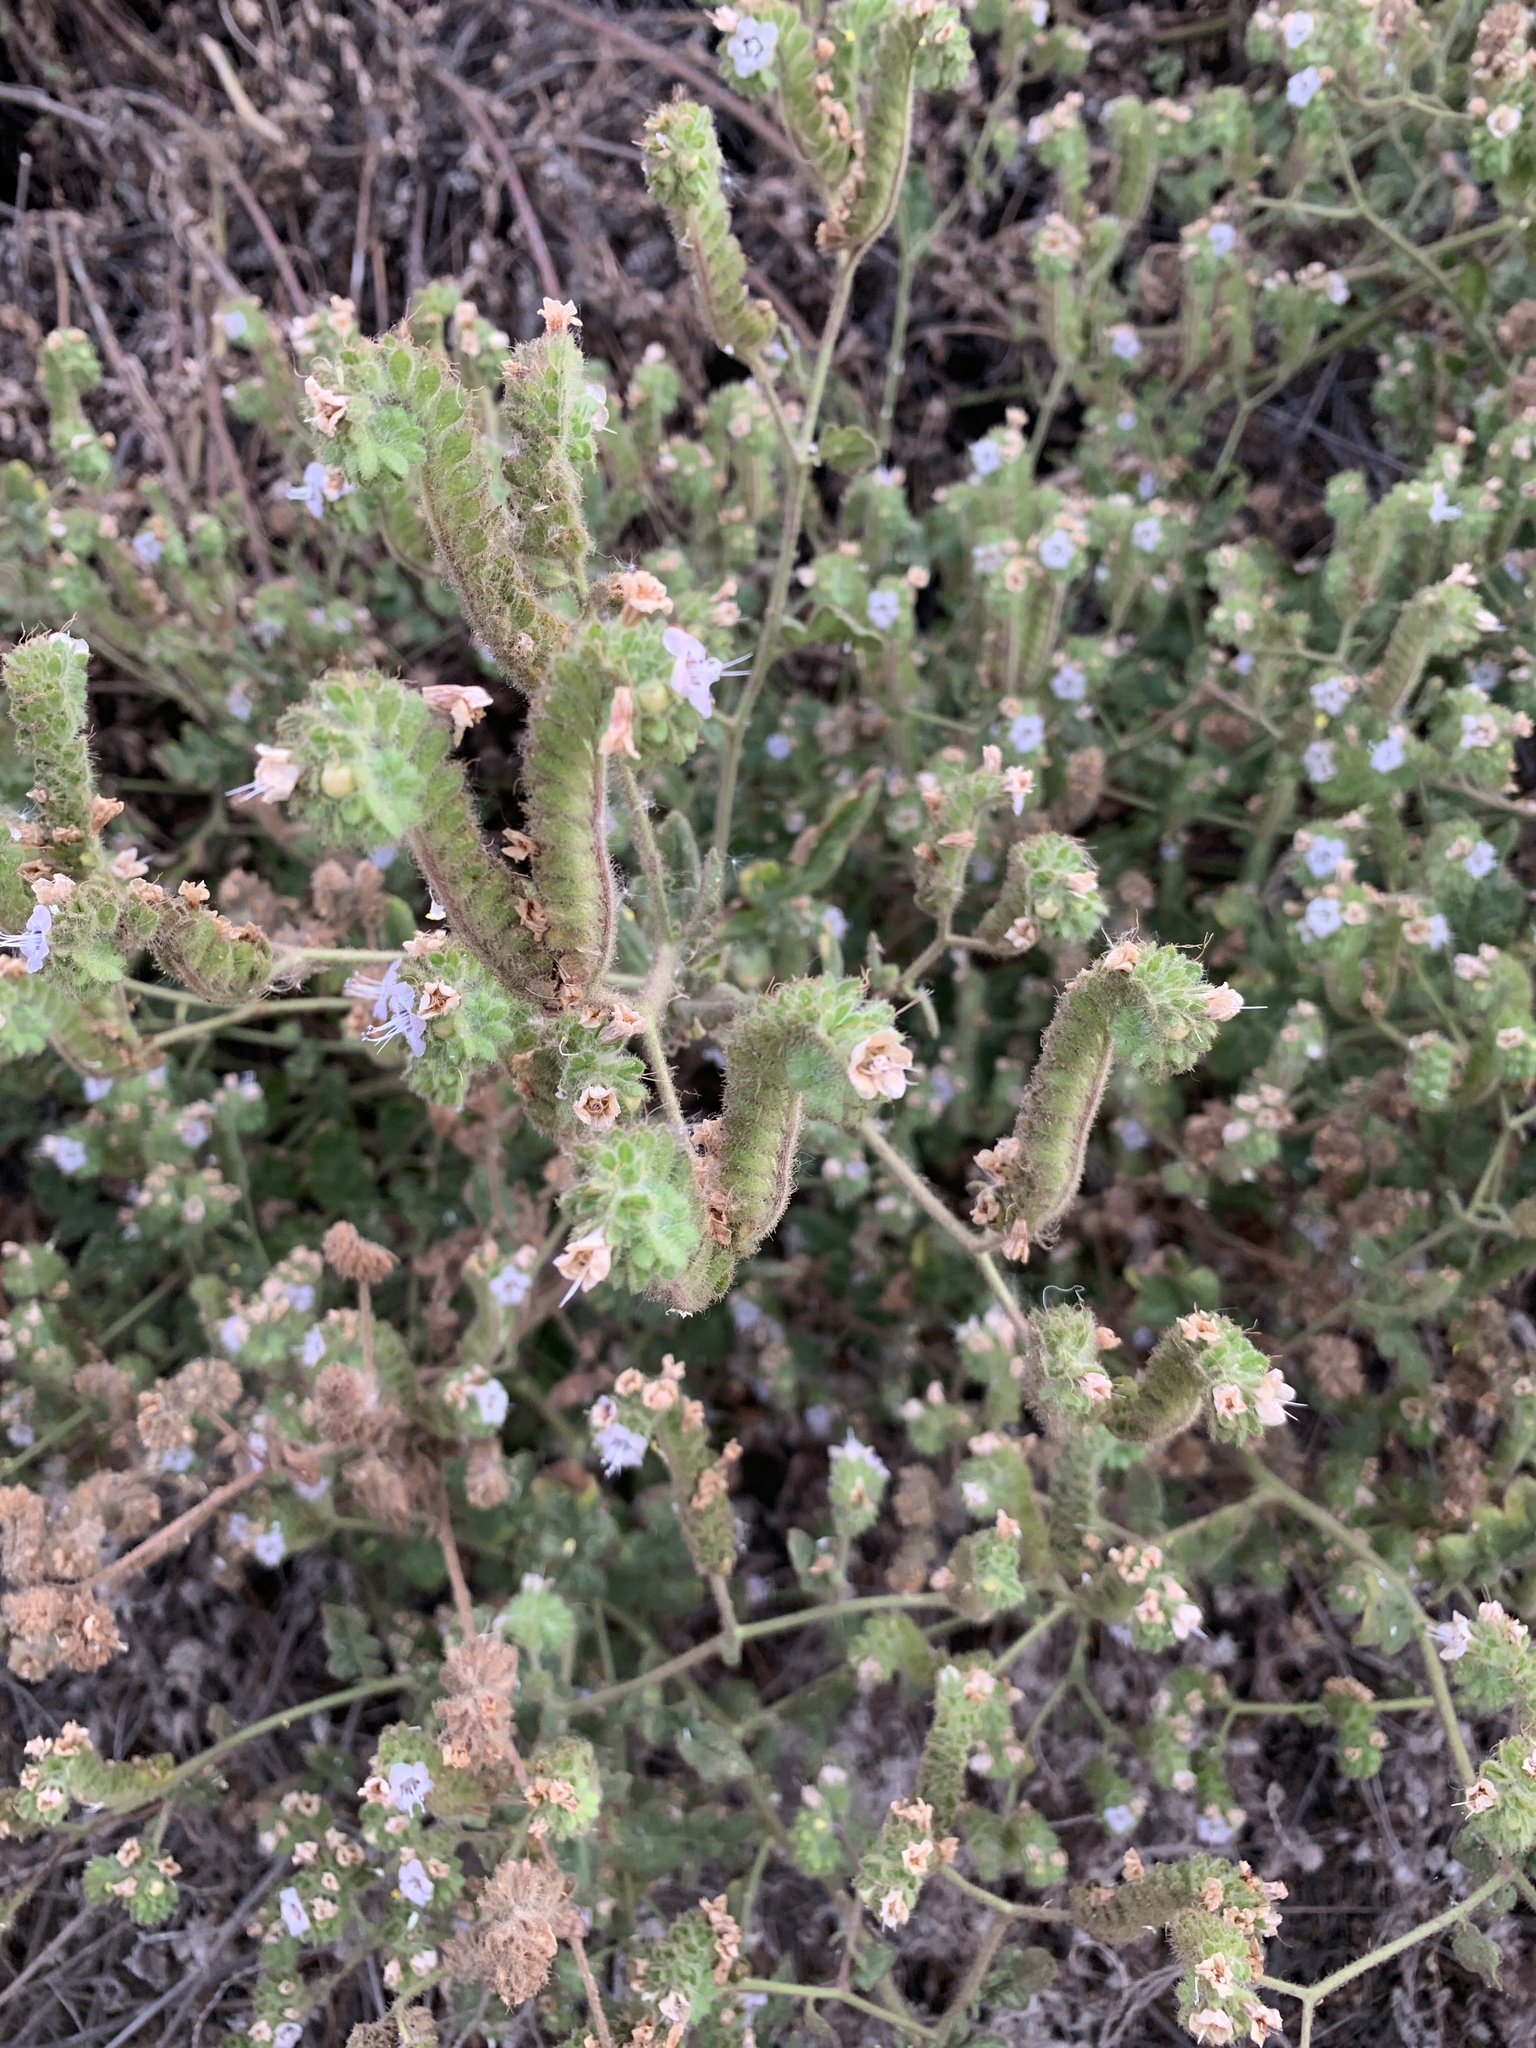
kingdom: Plantae
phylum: Tracheophyta
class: Magnoliopsida
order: Boraginales
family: Hydrophyllaceae
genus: Phacelia
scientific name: Phacelia ramosissima
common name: Branching phacelia
